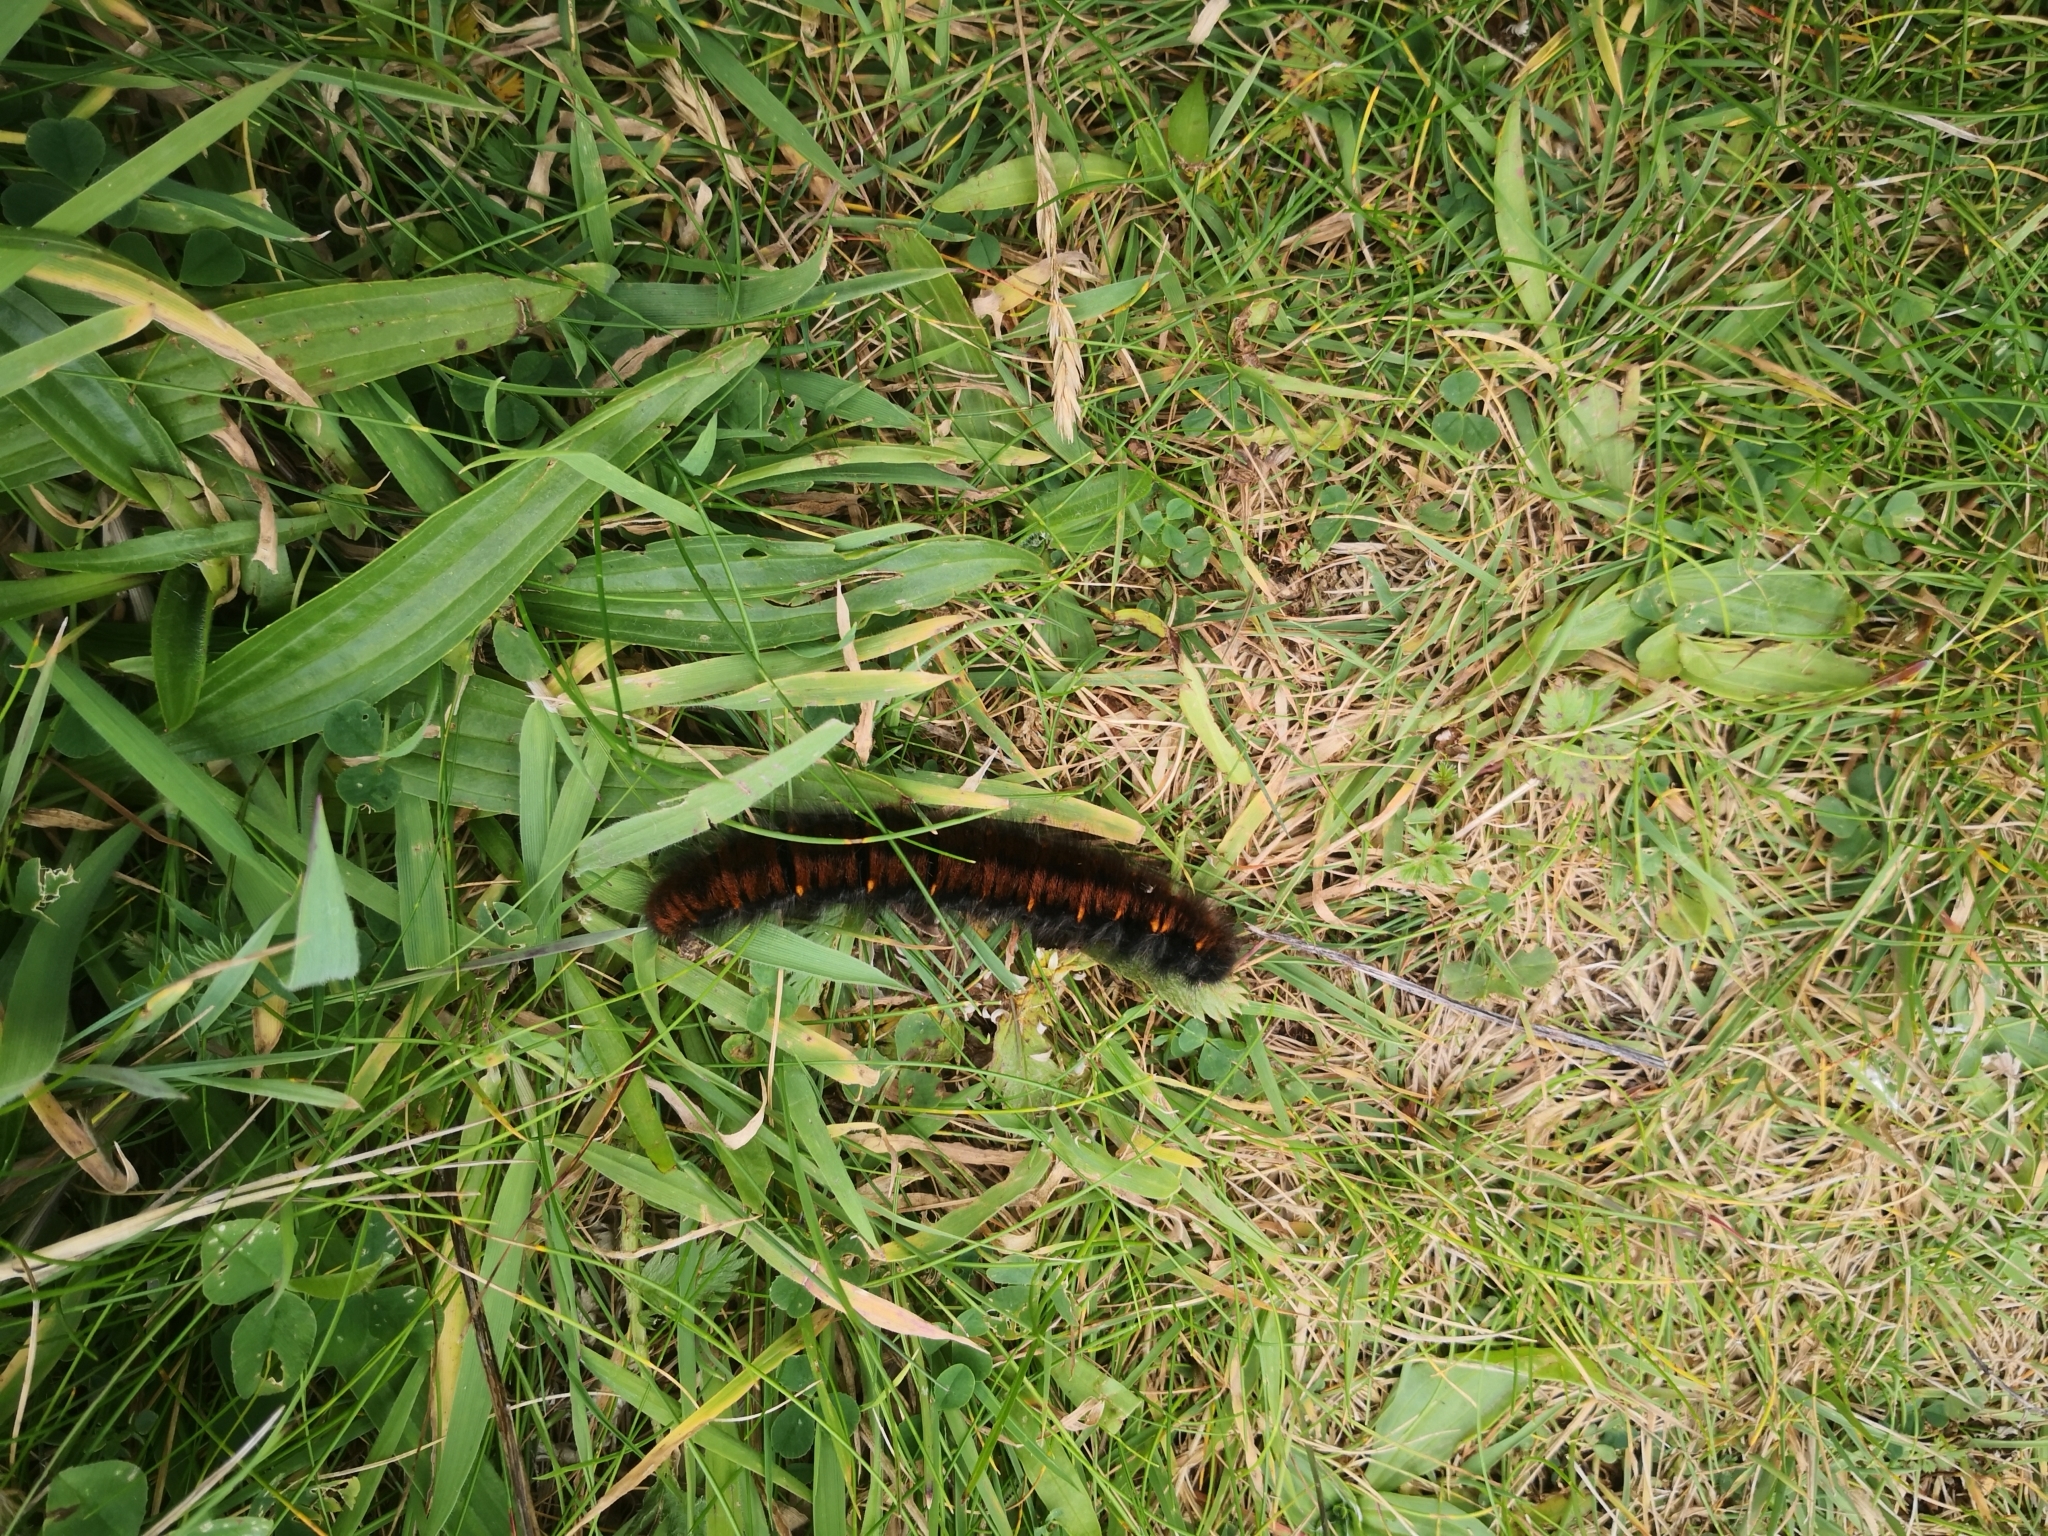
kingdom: Animalia
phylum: Arthropoda
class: Insecta
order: Lepidoptera
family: Lasiocampidae
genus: Macrothylacia
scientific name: Macrothylacia rubi
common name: Fox moth
